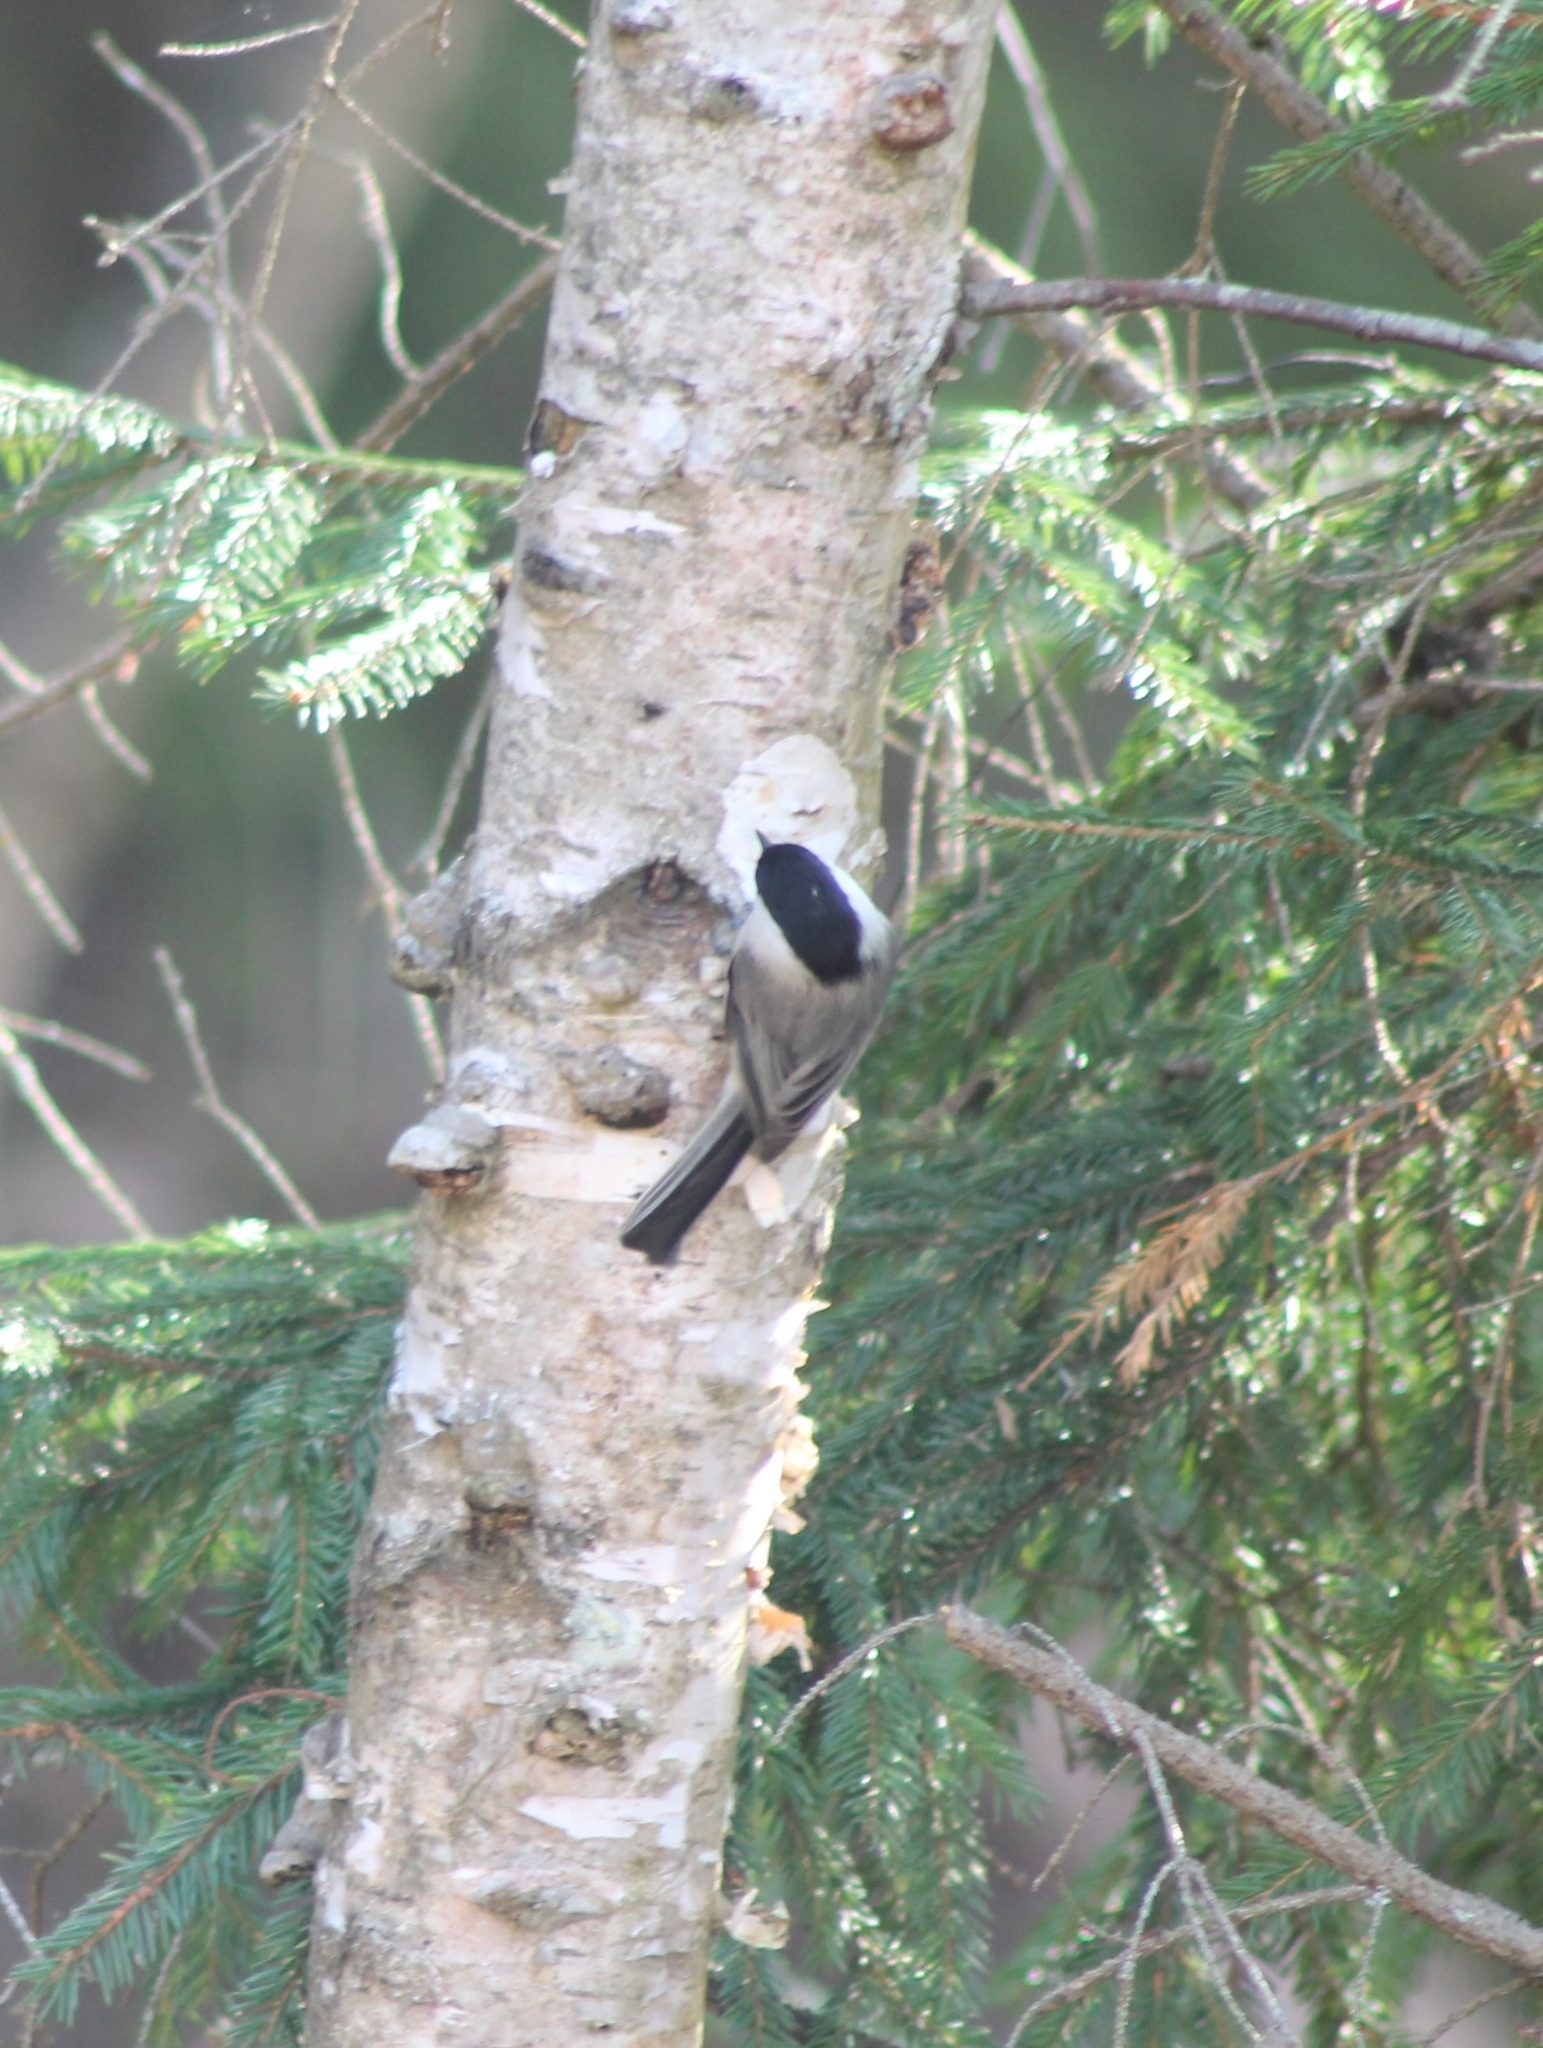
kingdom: Animalia
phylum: Chordata
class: Aves
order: Passeriformes
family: Paridae
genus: Poecile
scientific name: Poecile montanus
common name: Willow tit
